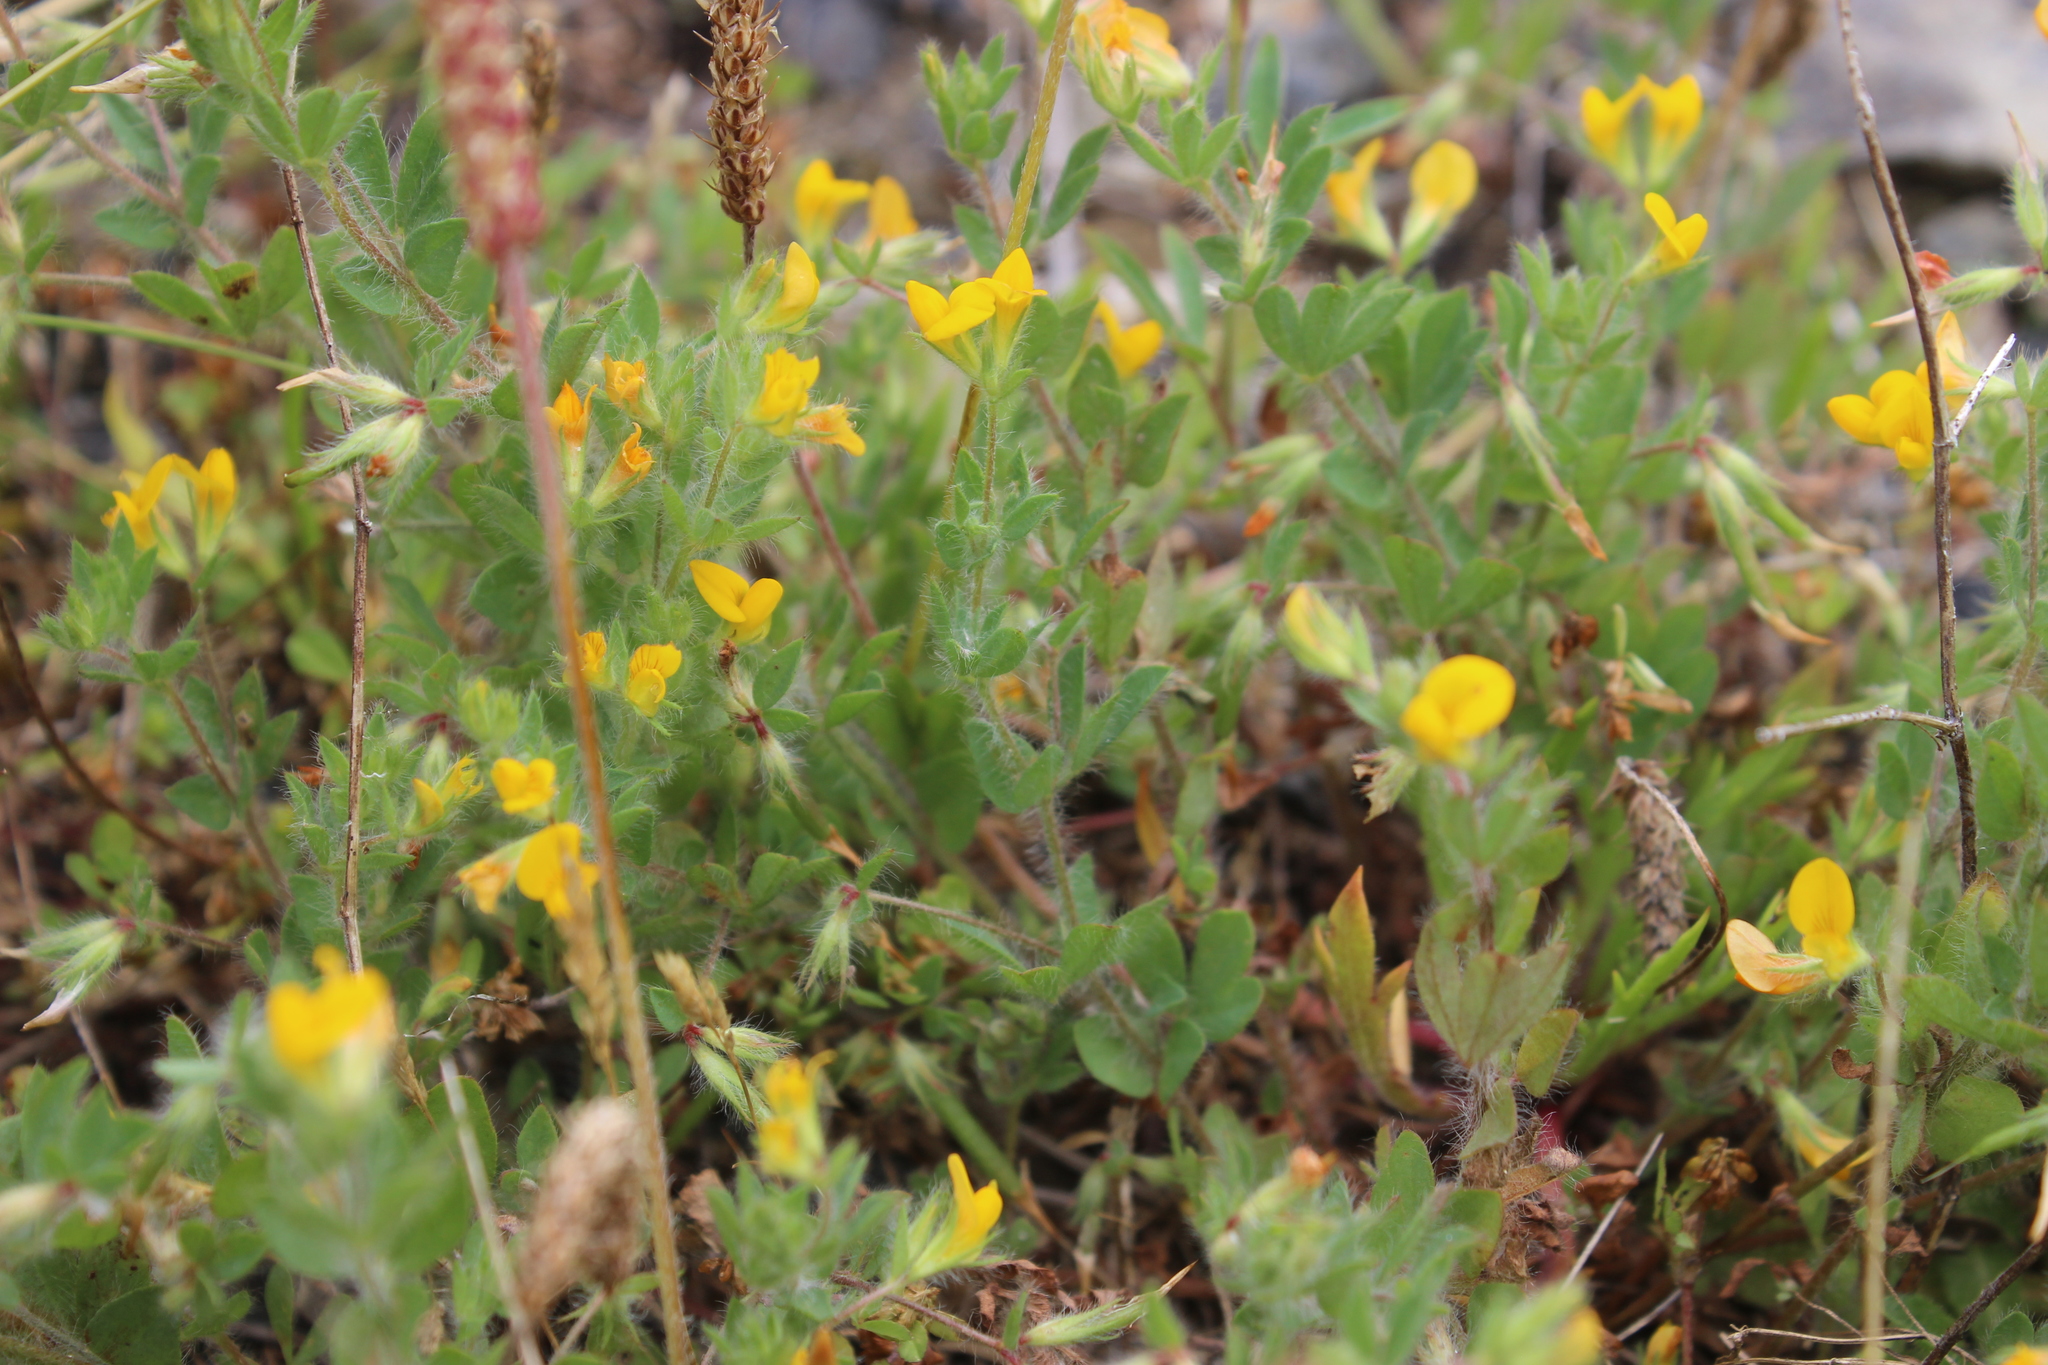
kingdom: Plantae
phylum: Tracheophyta
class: Magnoliopsida
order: Fabales
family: Fabaceae
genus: Lotus
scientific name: Lotus subbiflorus
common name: Hairy bird's-foot trefoil
